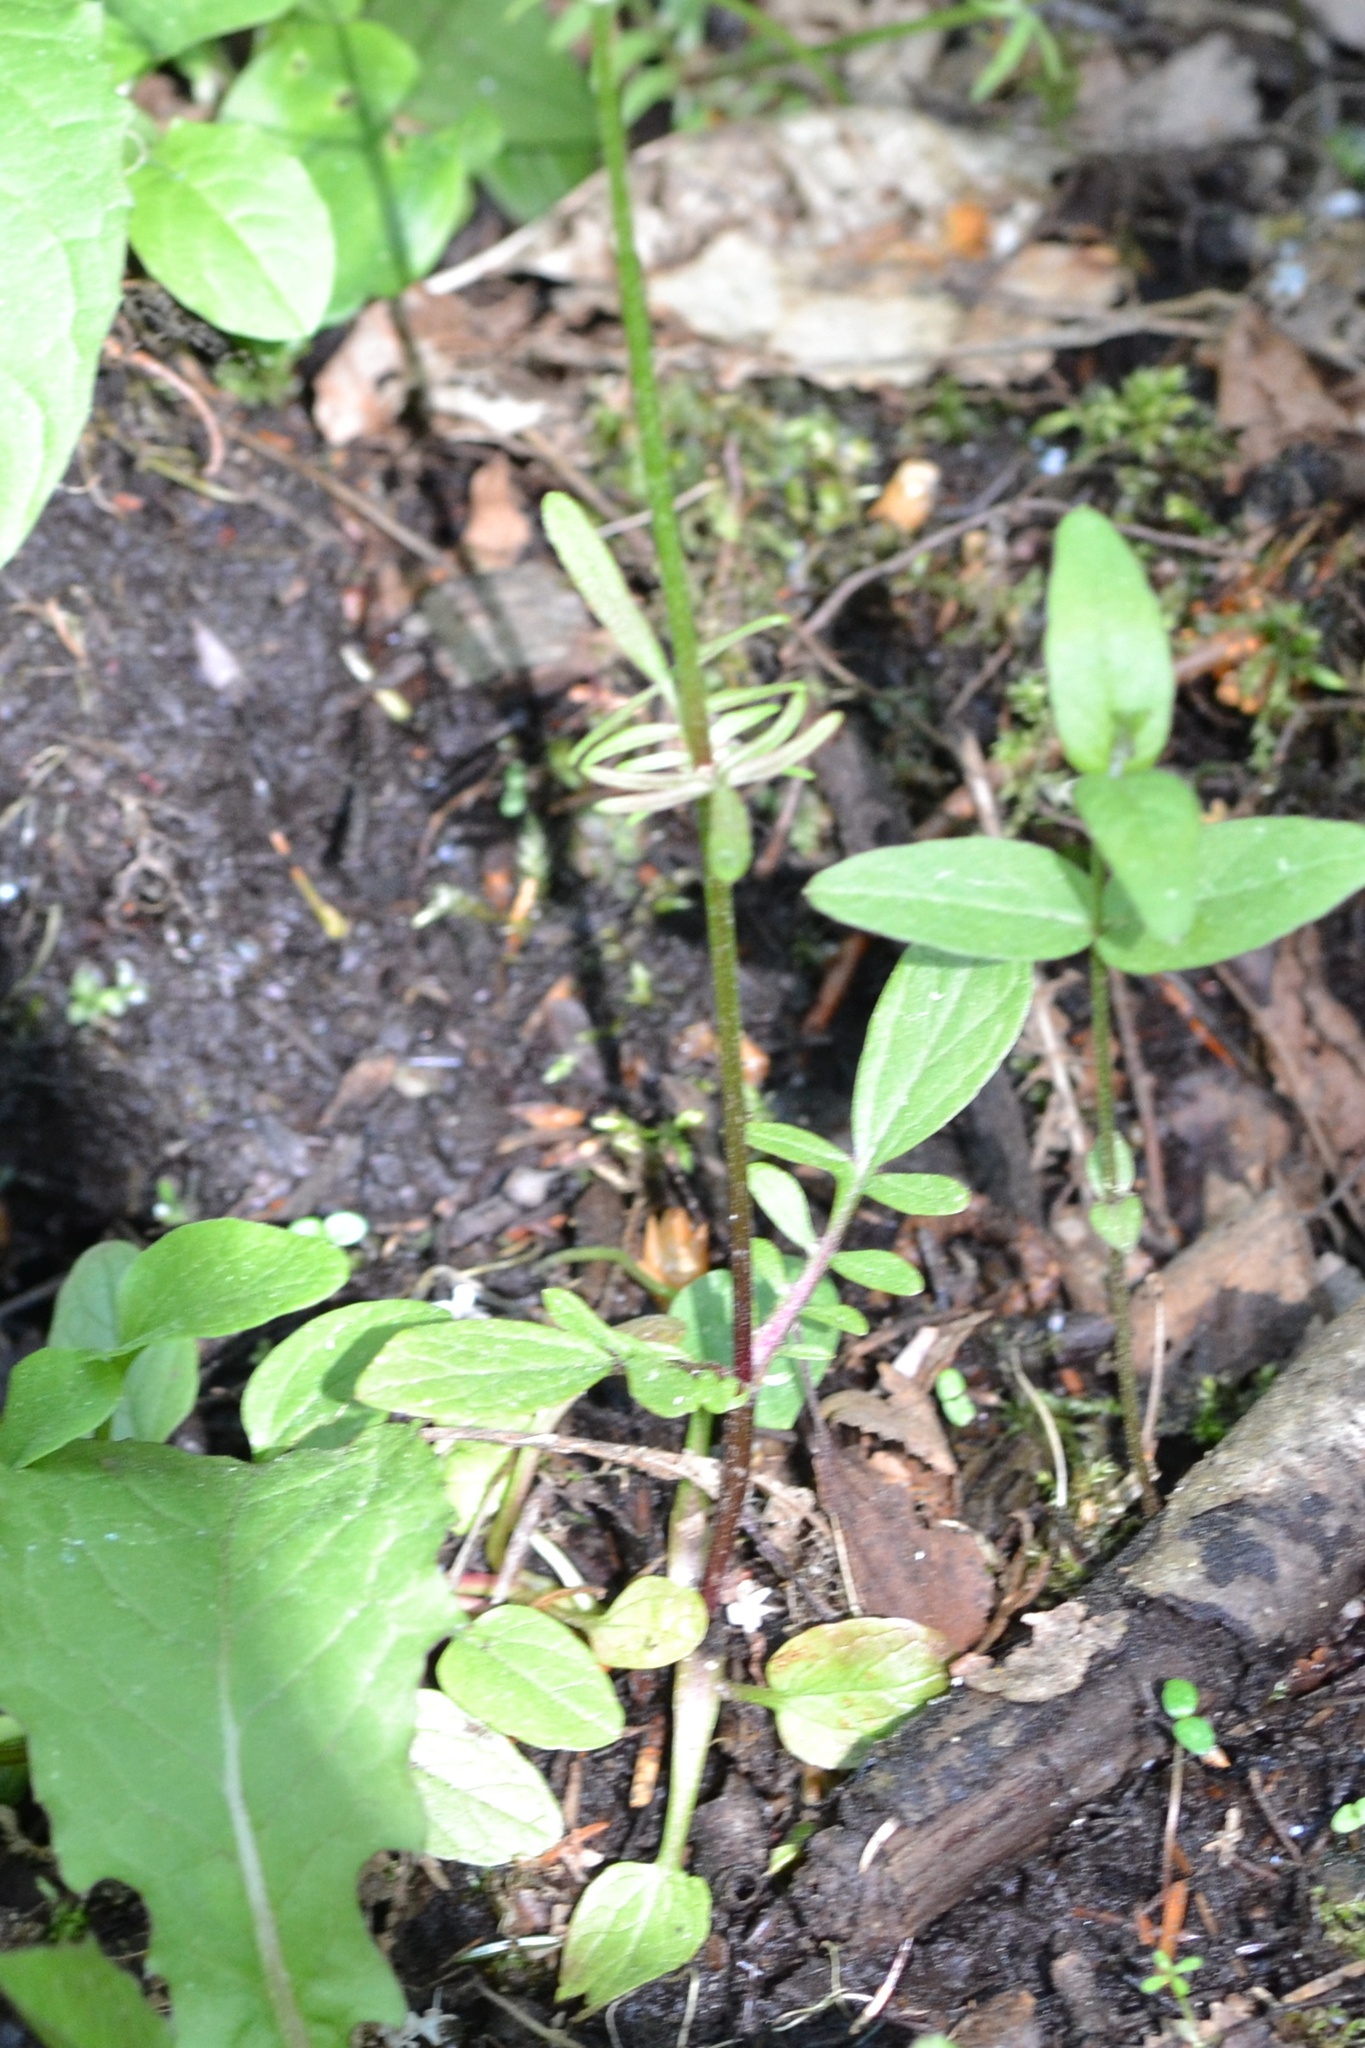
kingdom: Plantae
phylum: Tracheophyta
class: Magnoliopsida
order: Dipsacales
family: Caprifoliaceae
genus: Valeriana
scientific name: Valeriana dioica
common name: Marsh valerian
